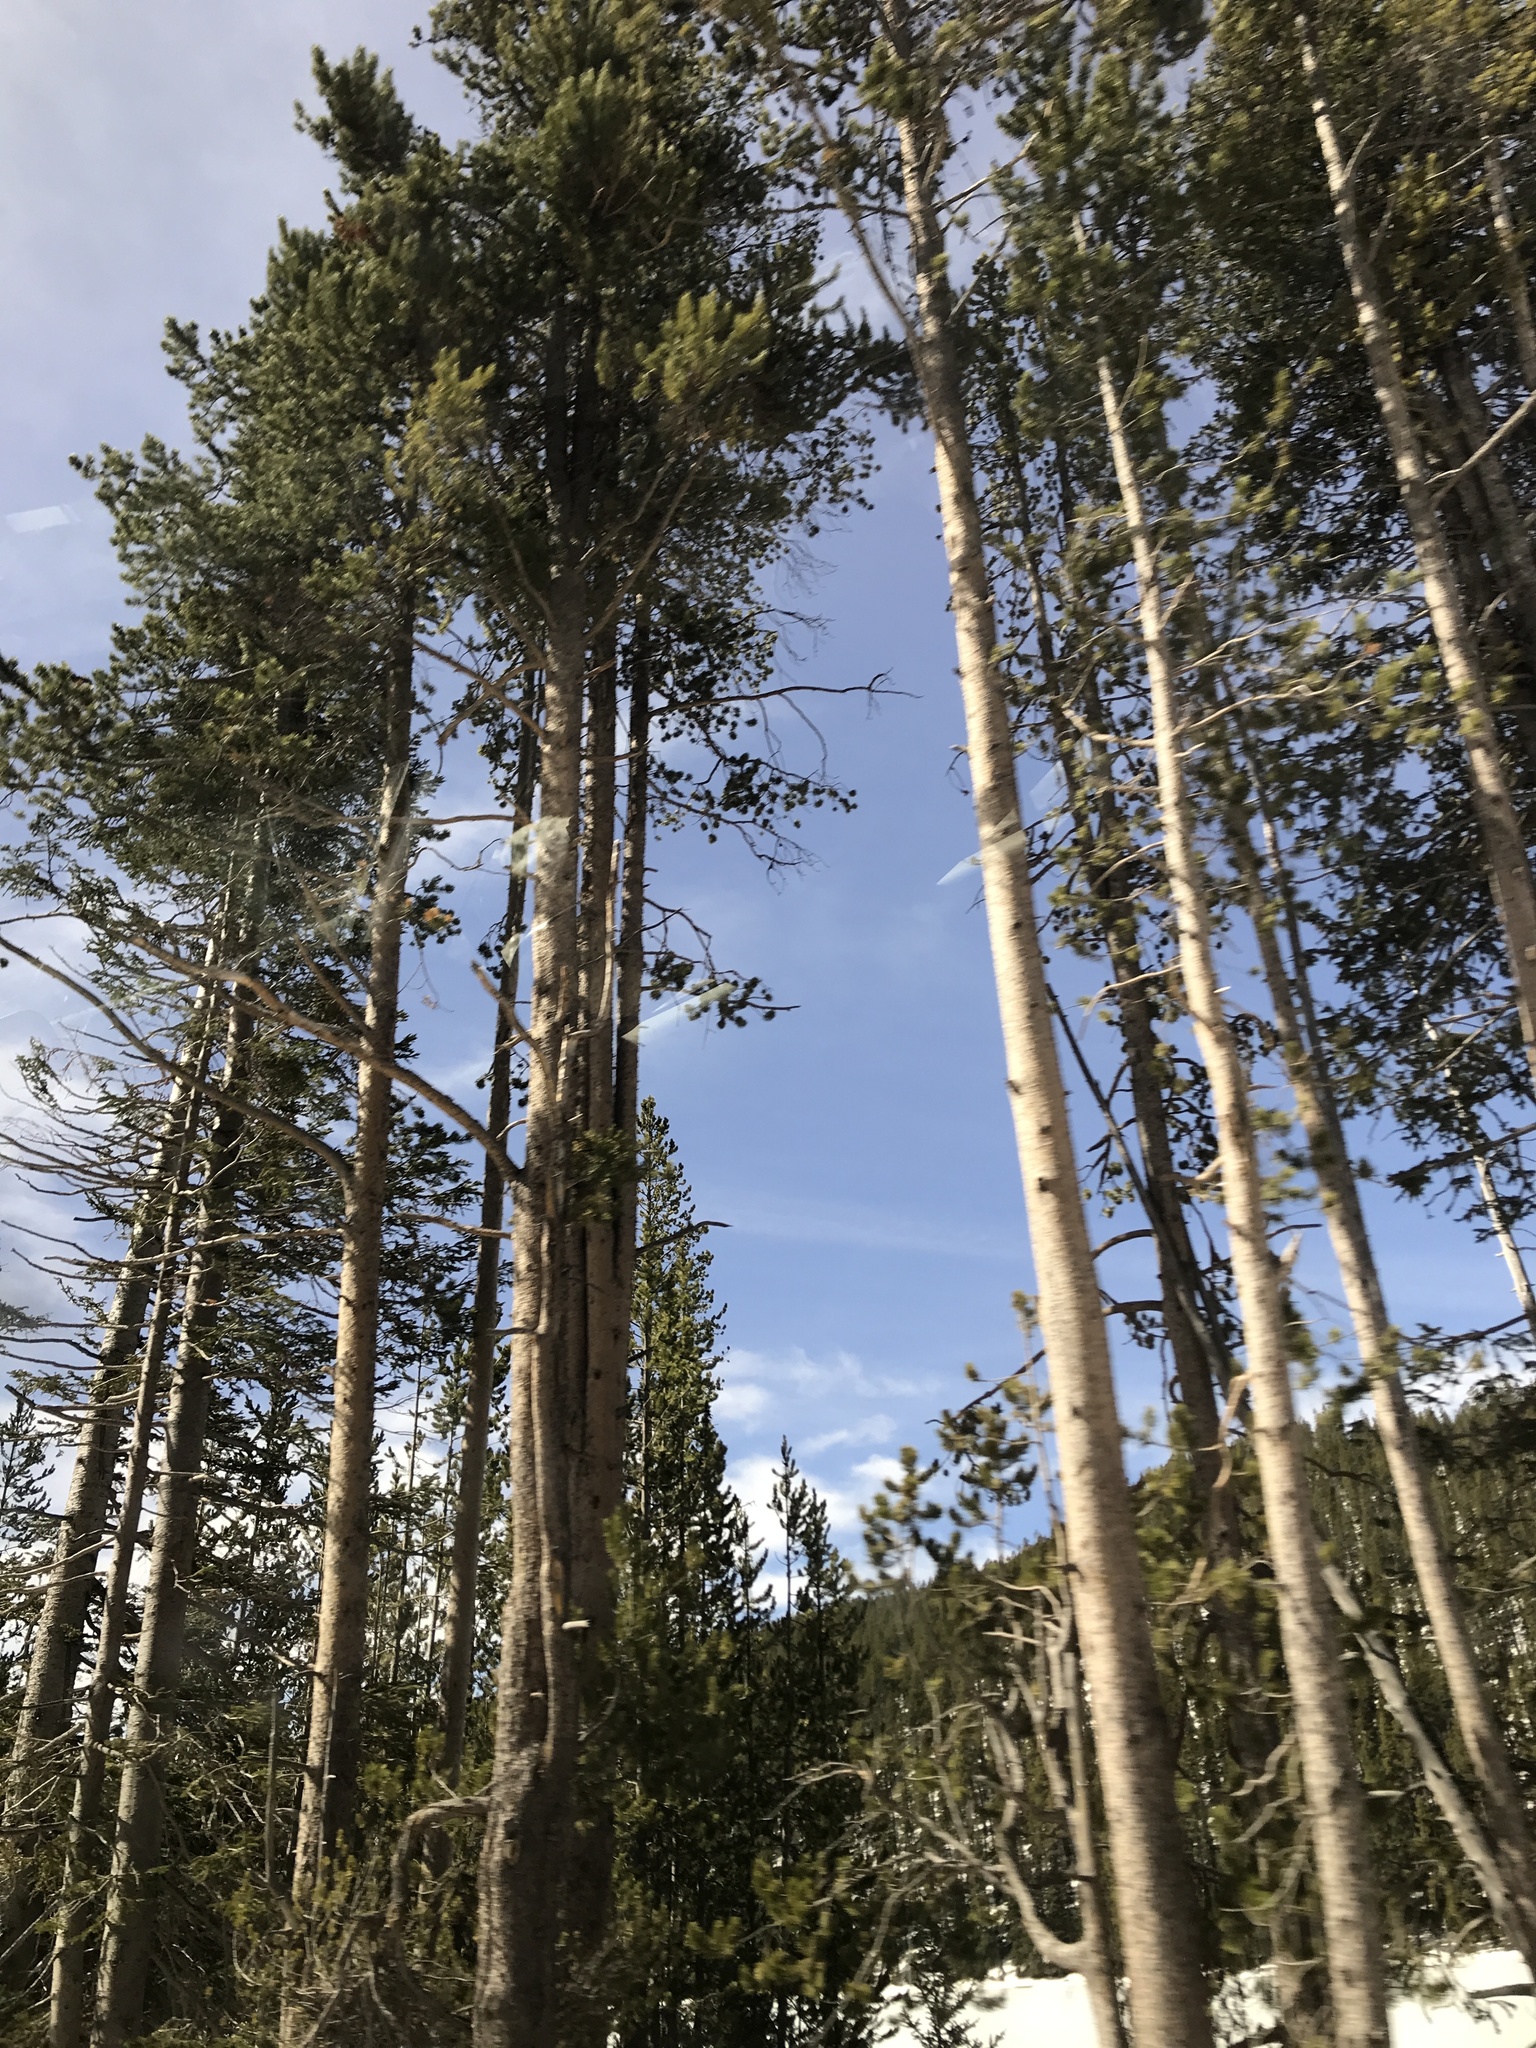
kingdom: Plantae
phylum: Tracheophyta
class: Pinopsida
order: Pinales
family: Pinaceae
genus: Pinus
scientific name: Pinus contorta
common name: Lodgepole pine
